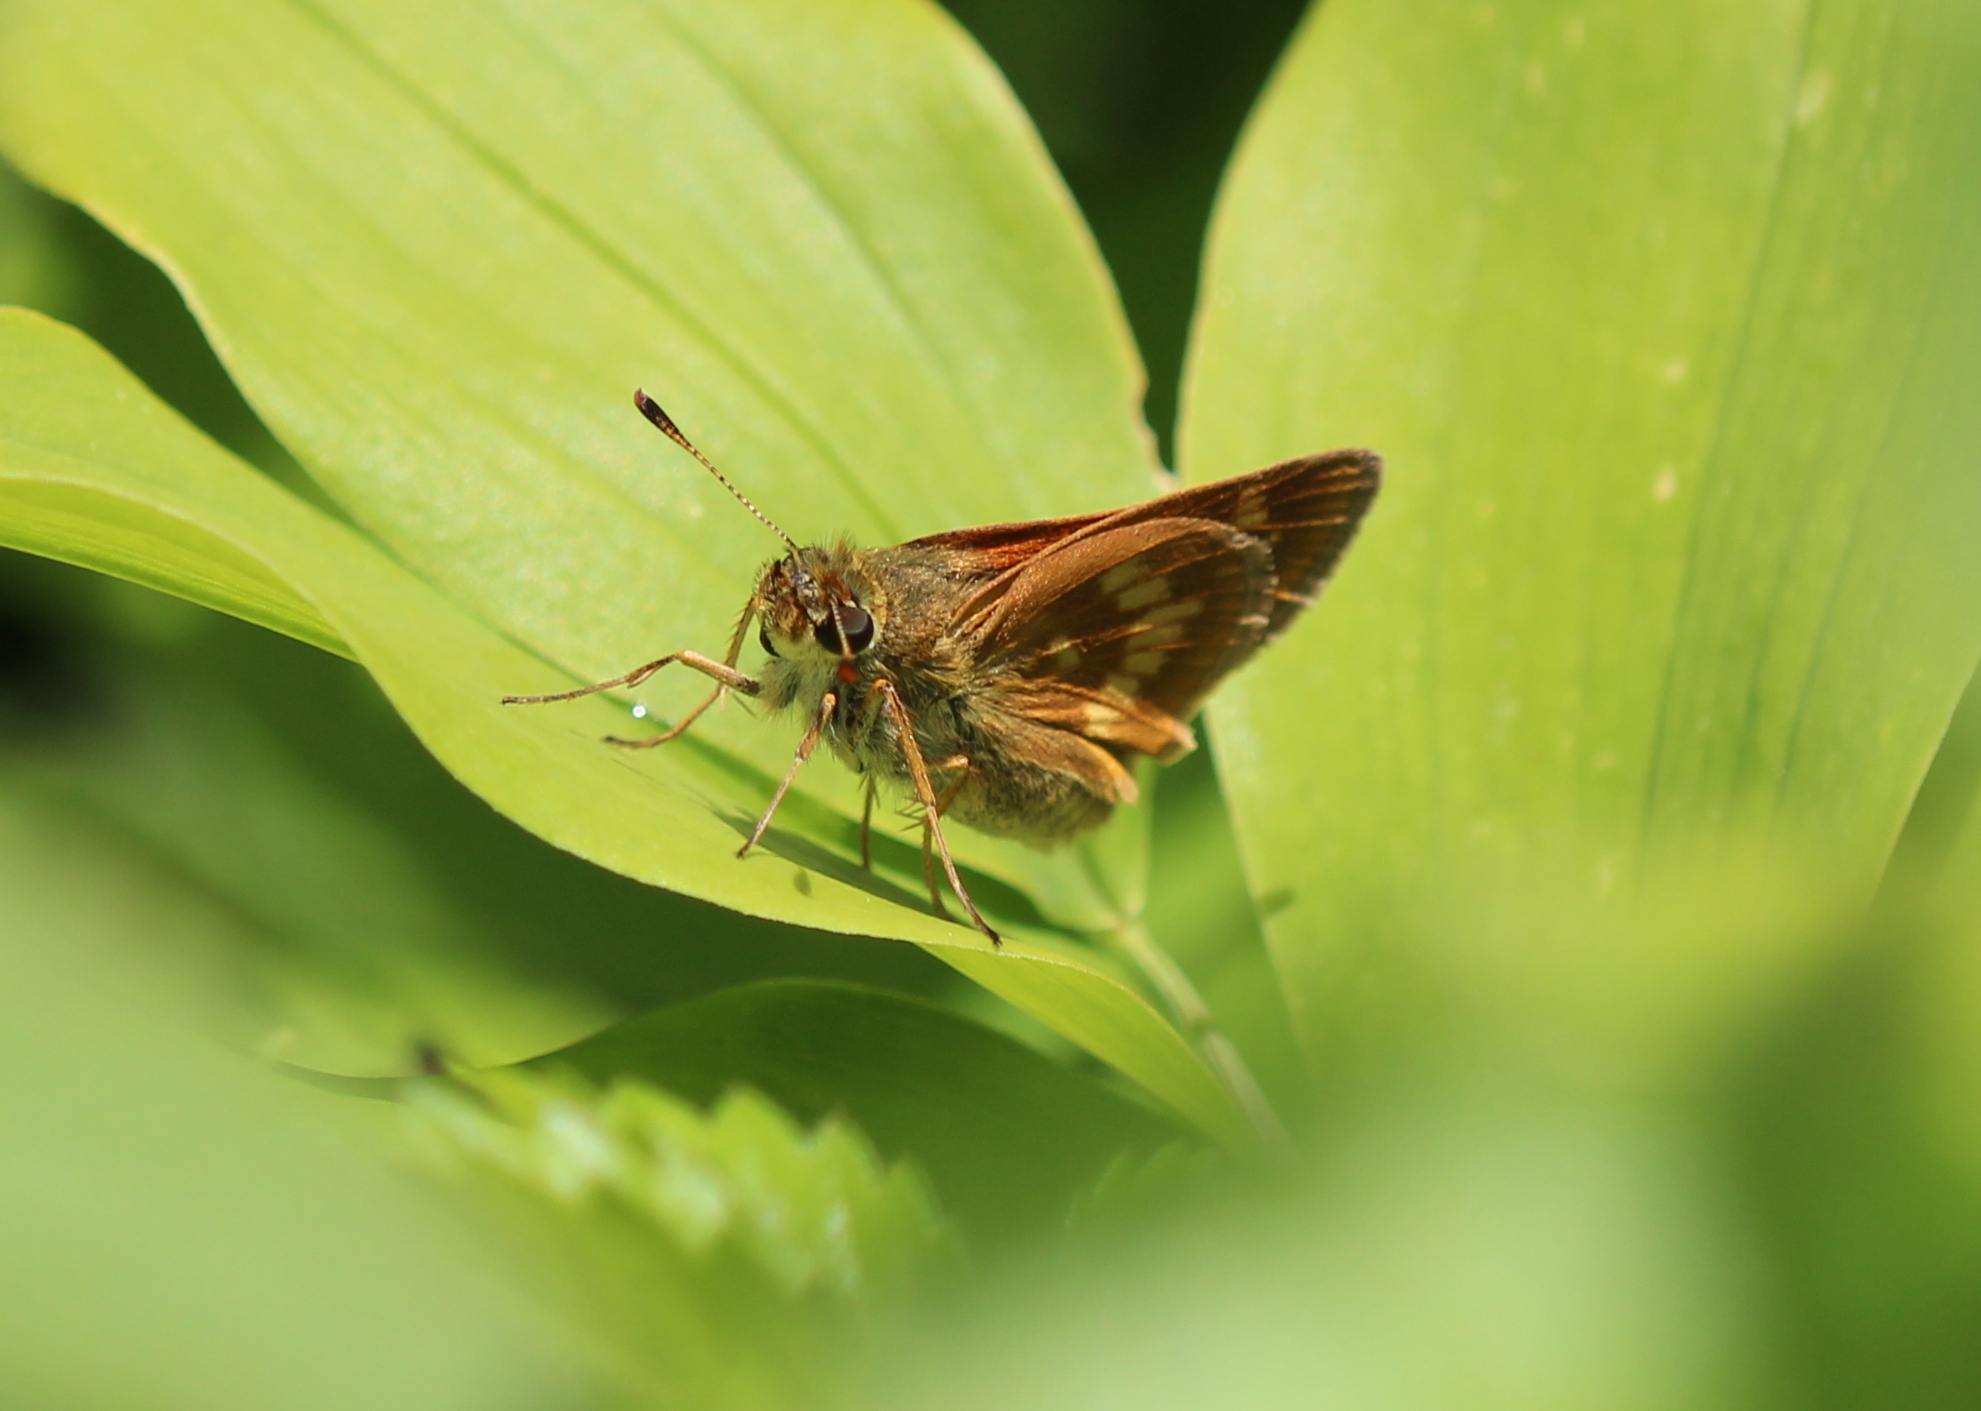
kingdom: Animalia
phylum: Arthropoda
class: Insecta
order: Lepidoptera
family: Hesperiidae
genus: Polites
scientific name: Polites mystic
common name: Long dash
